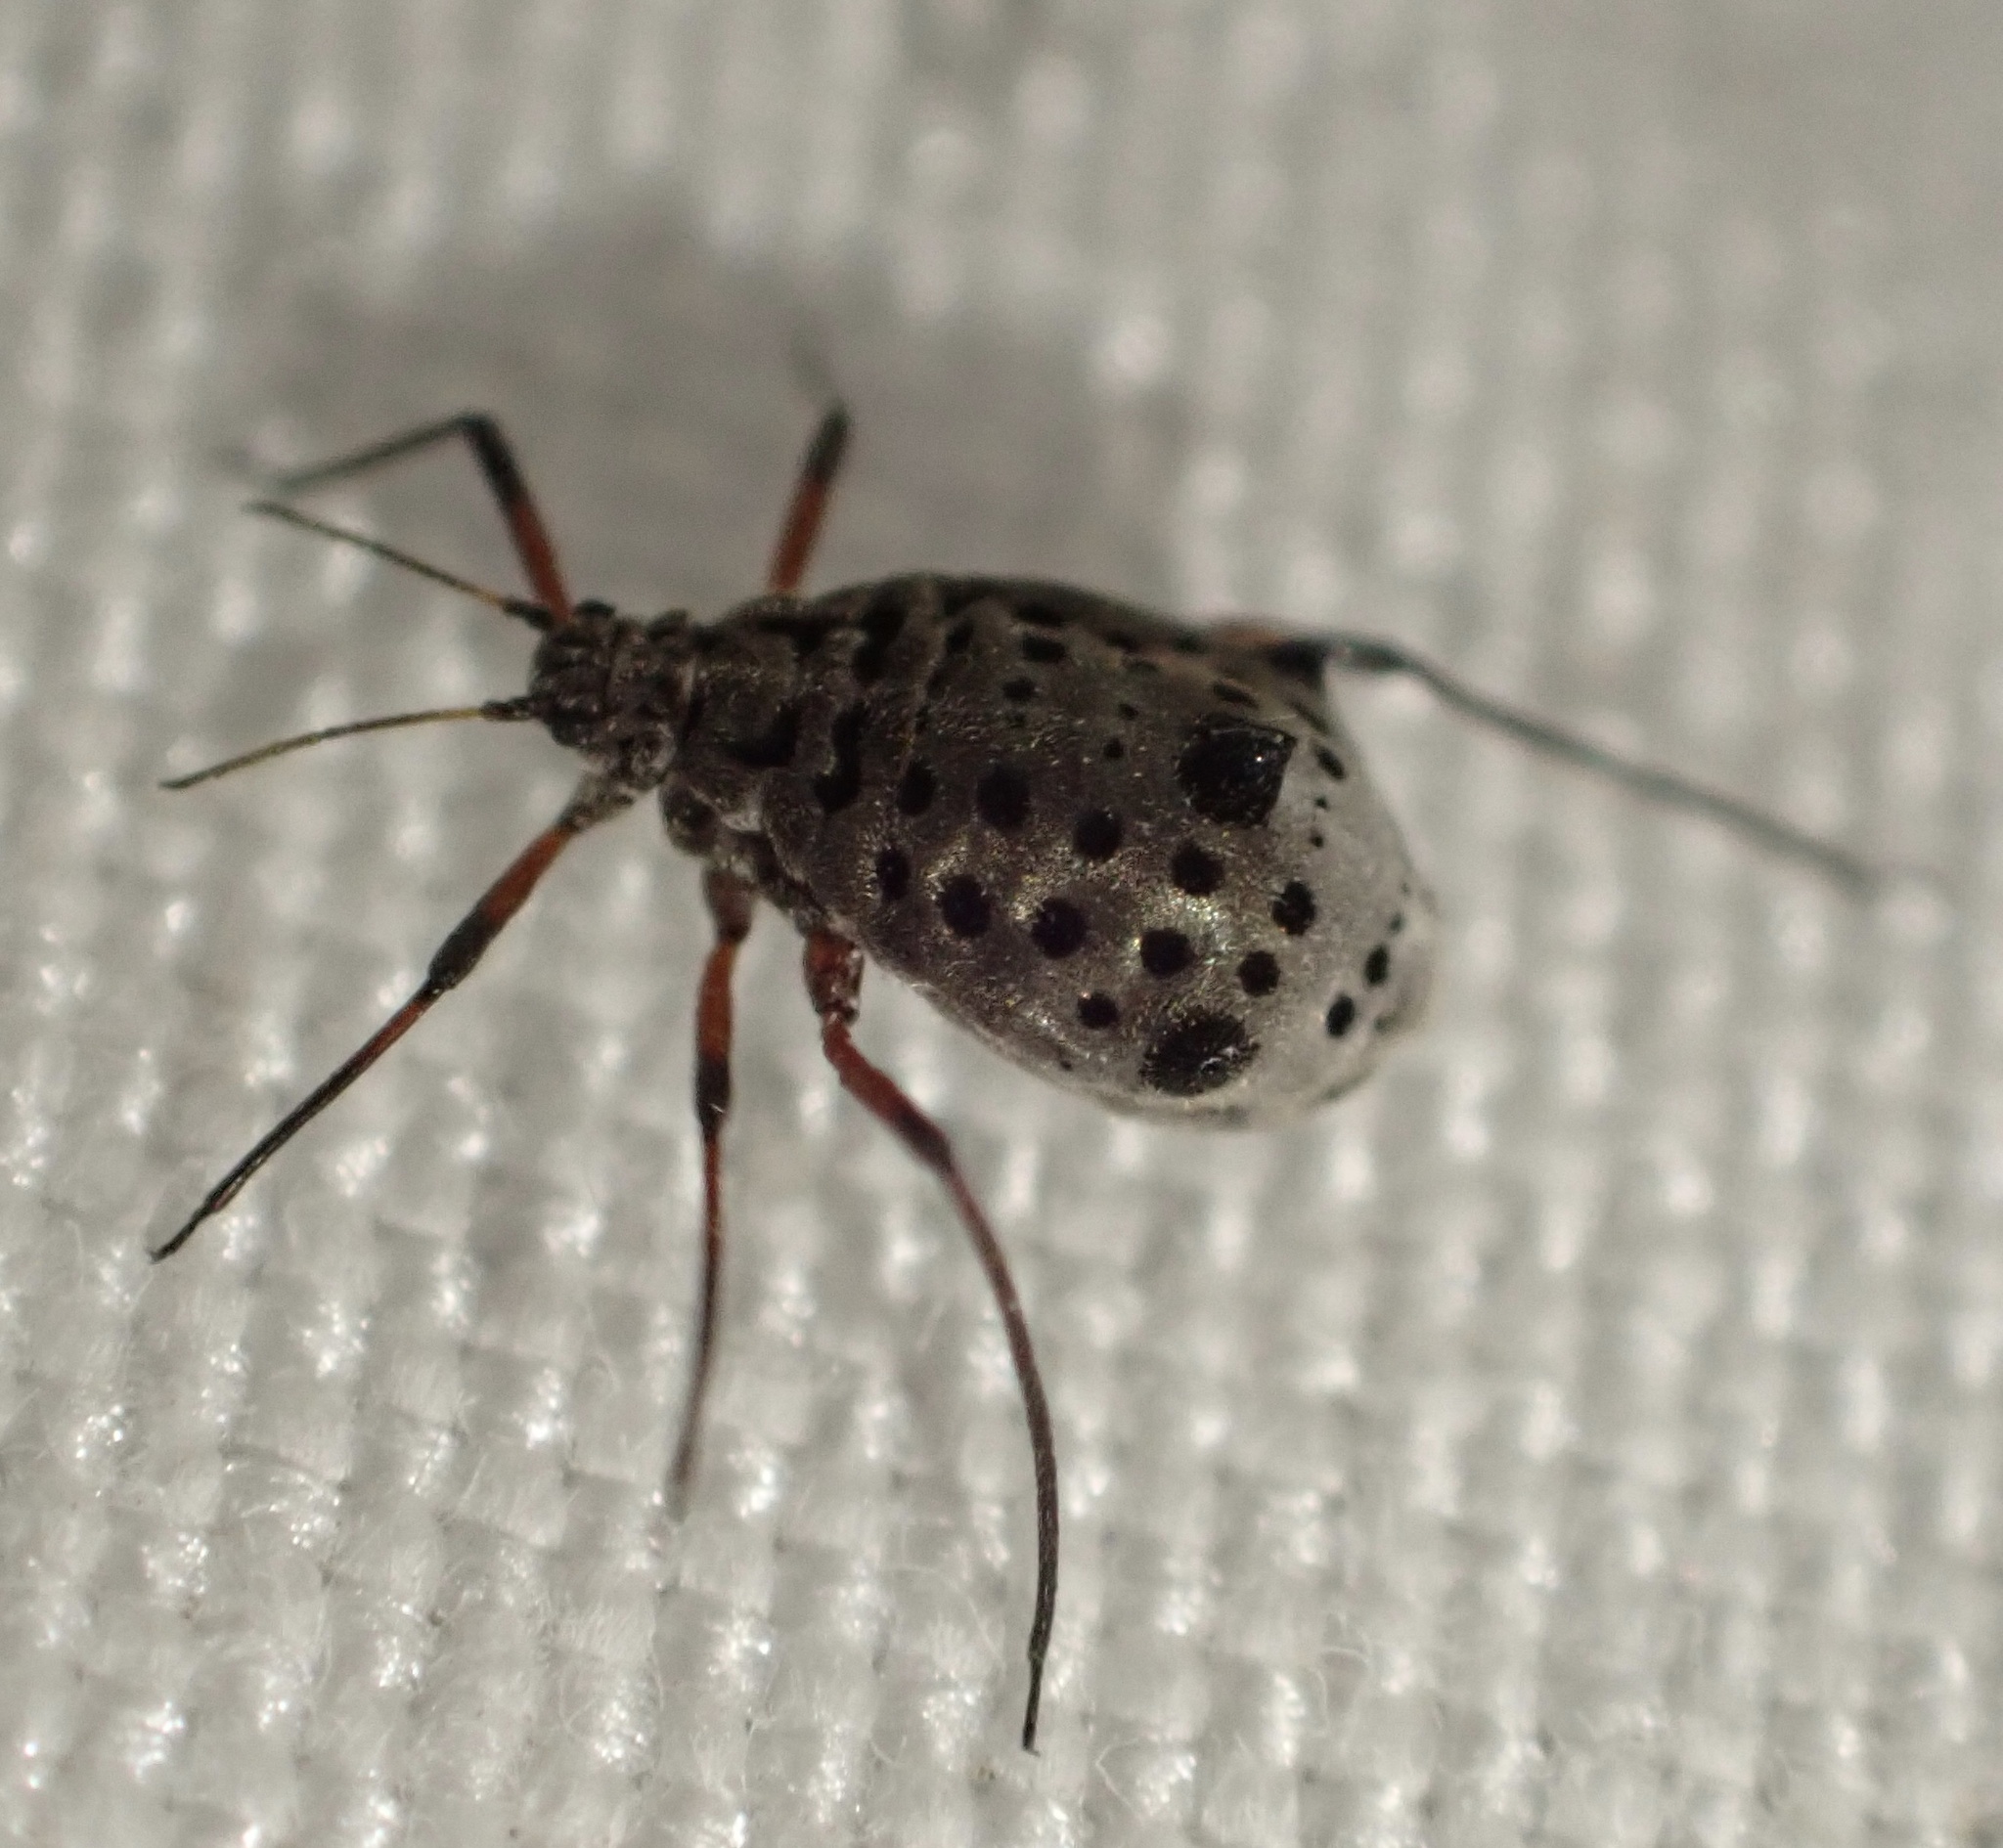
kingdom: Animalia
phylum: Arthropoda
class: Insecta
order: Hemiptera
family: Aphididae
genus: Tuberolachnus
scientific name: Tuberolachnus salignus
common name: Giant willow aphid
